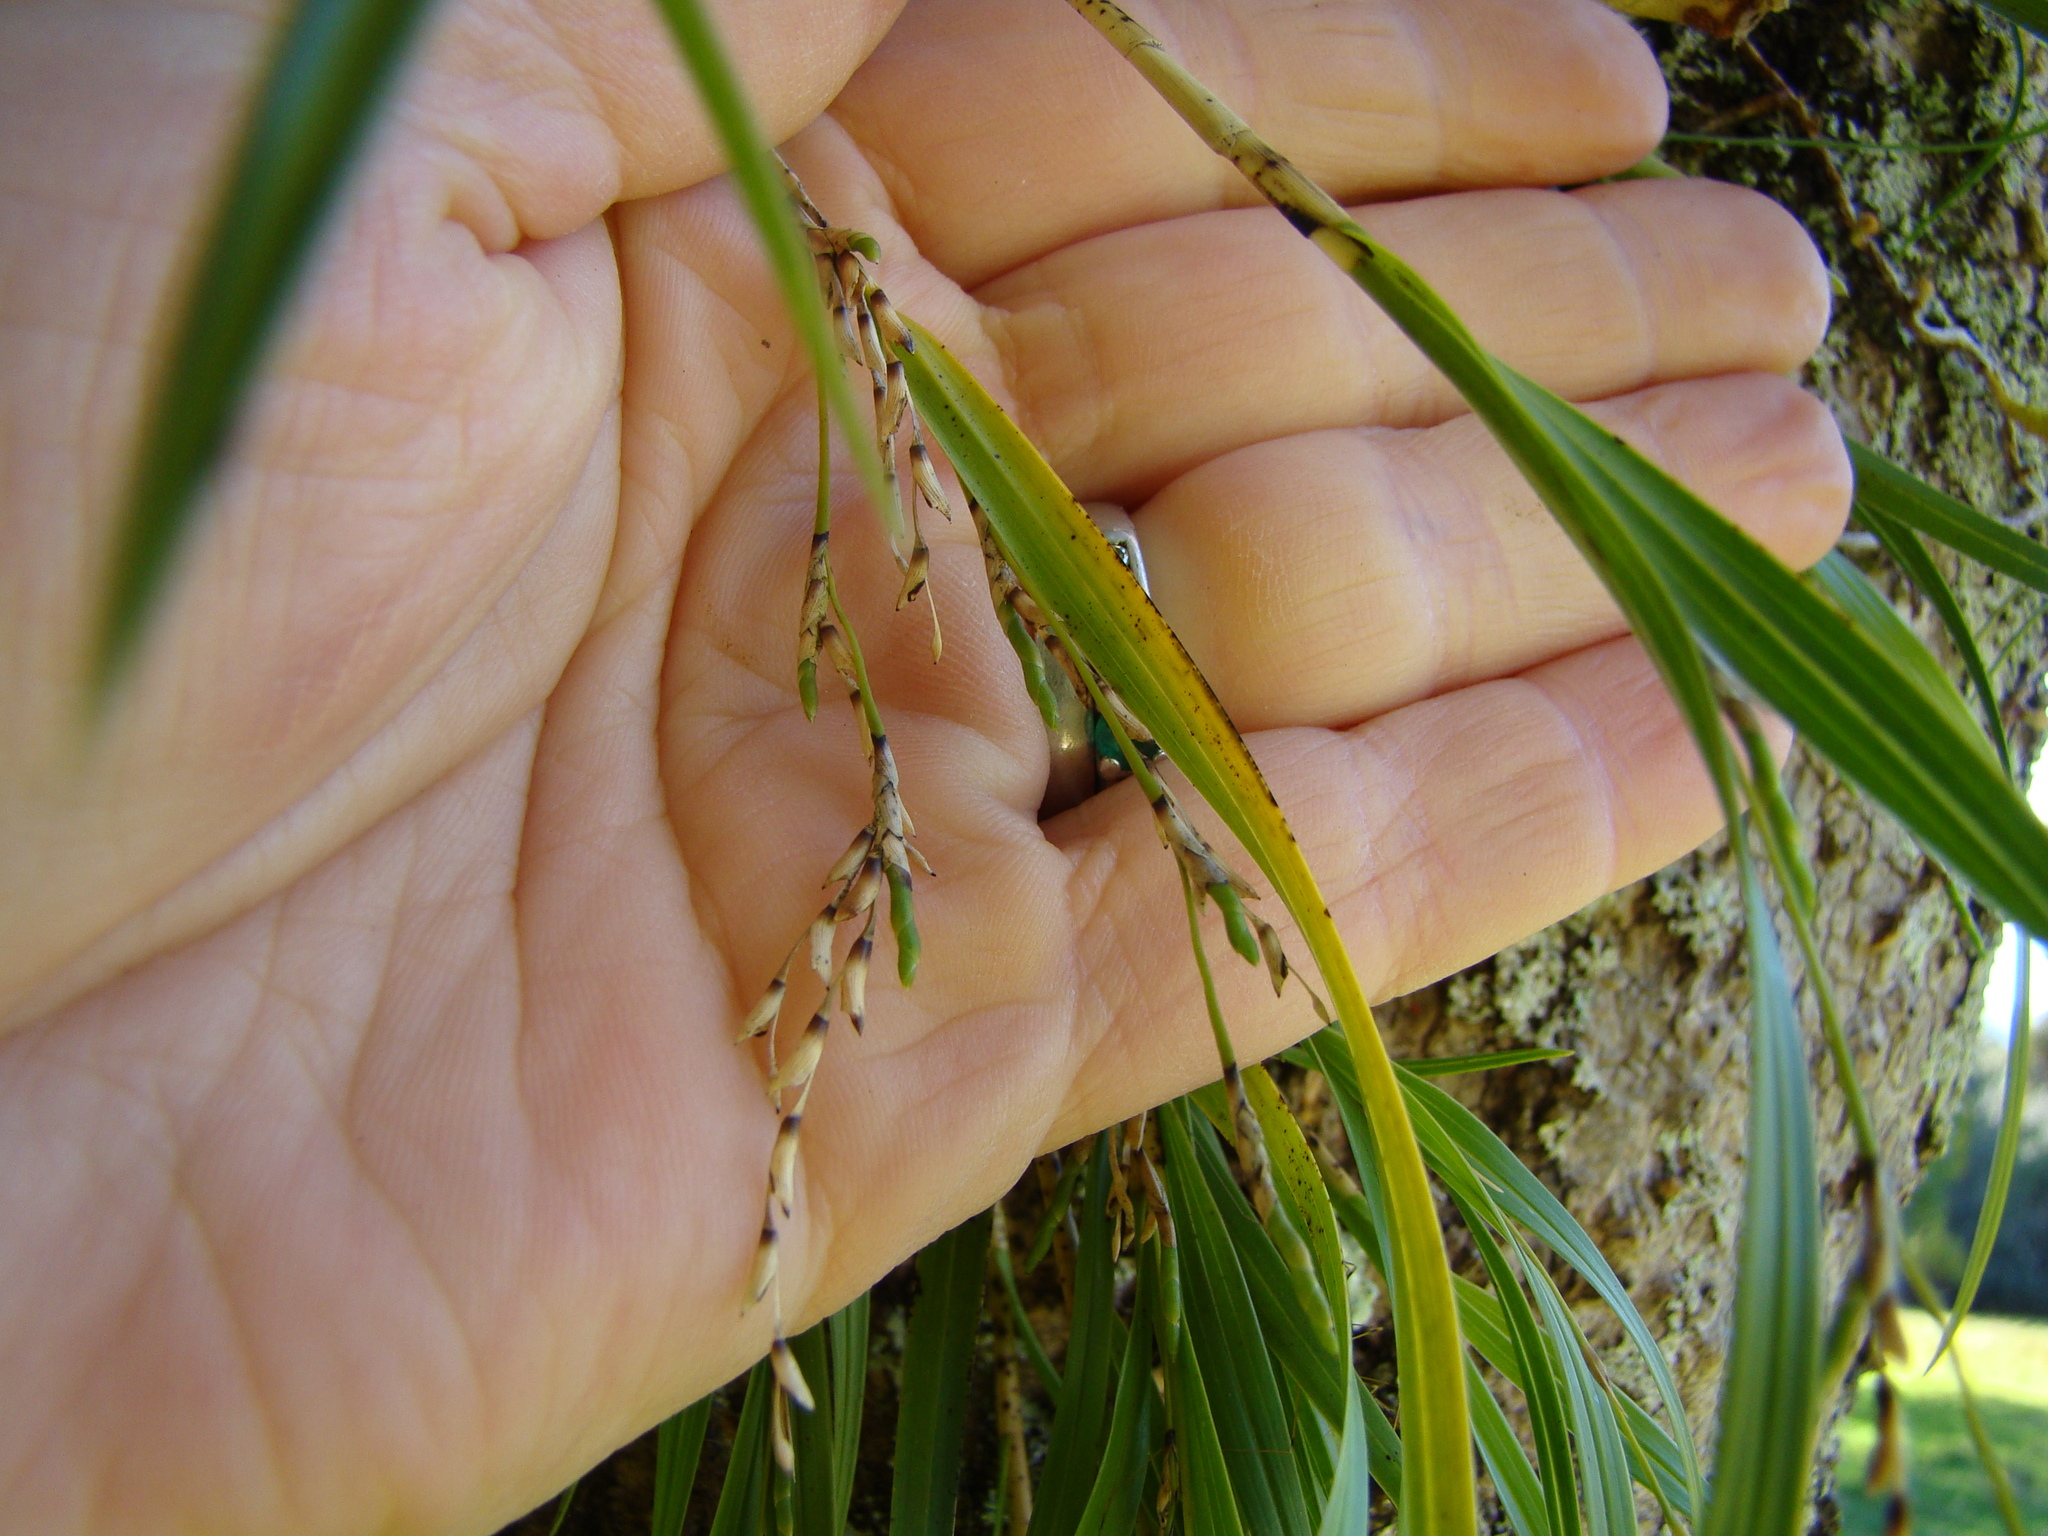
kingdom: Plantae
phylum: Tracheophyta
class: Liliopsida
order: Asparagales
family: Orchidaceae
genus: Earina
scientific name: Earina mucronata
